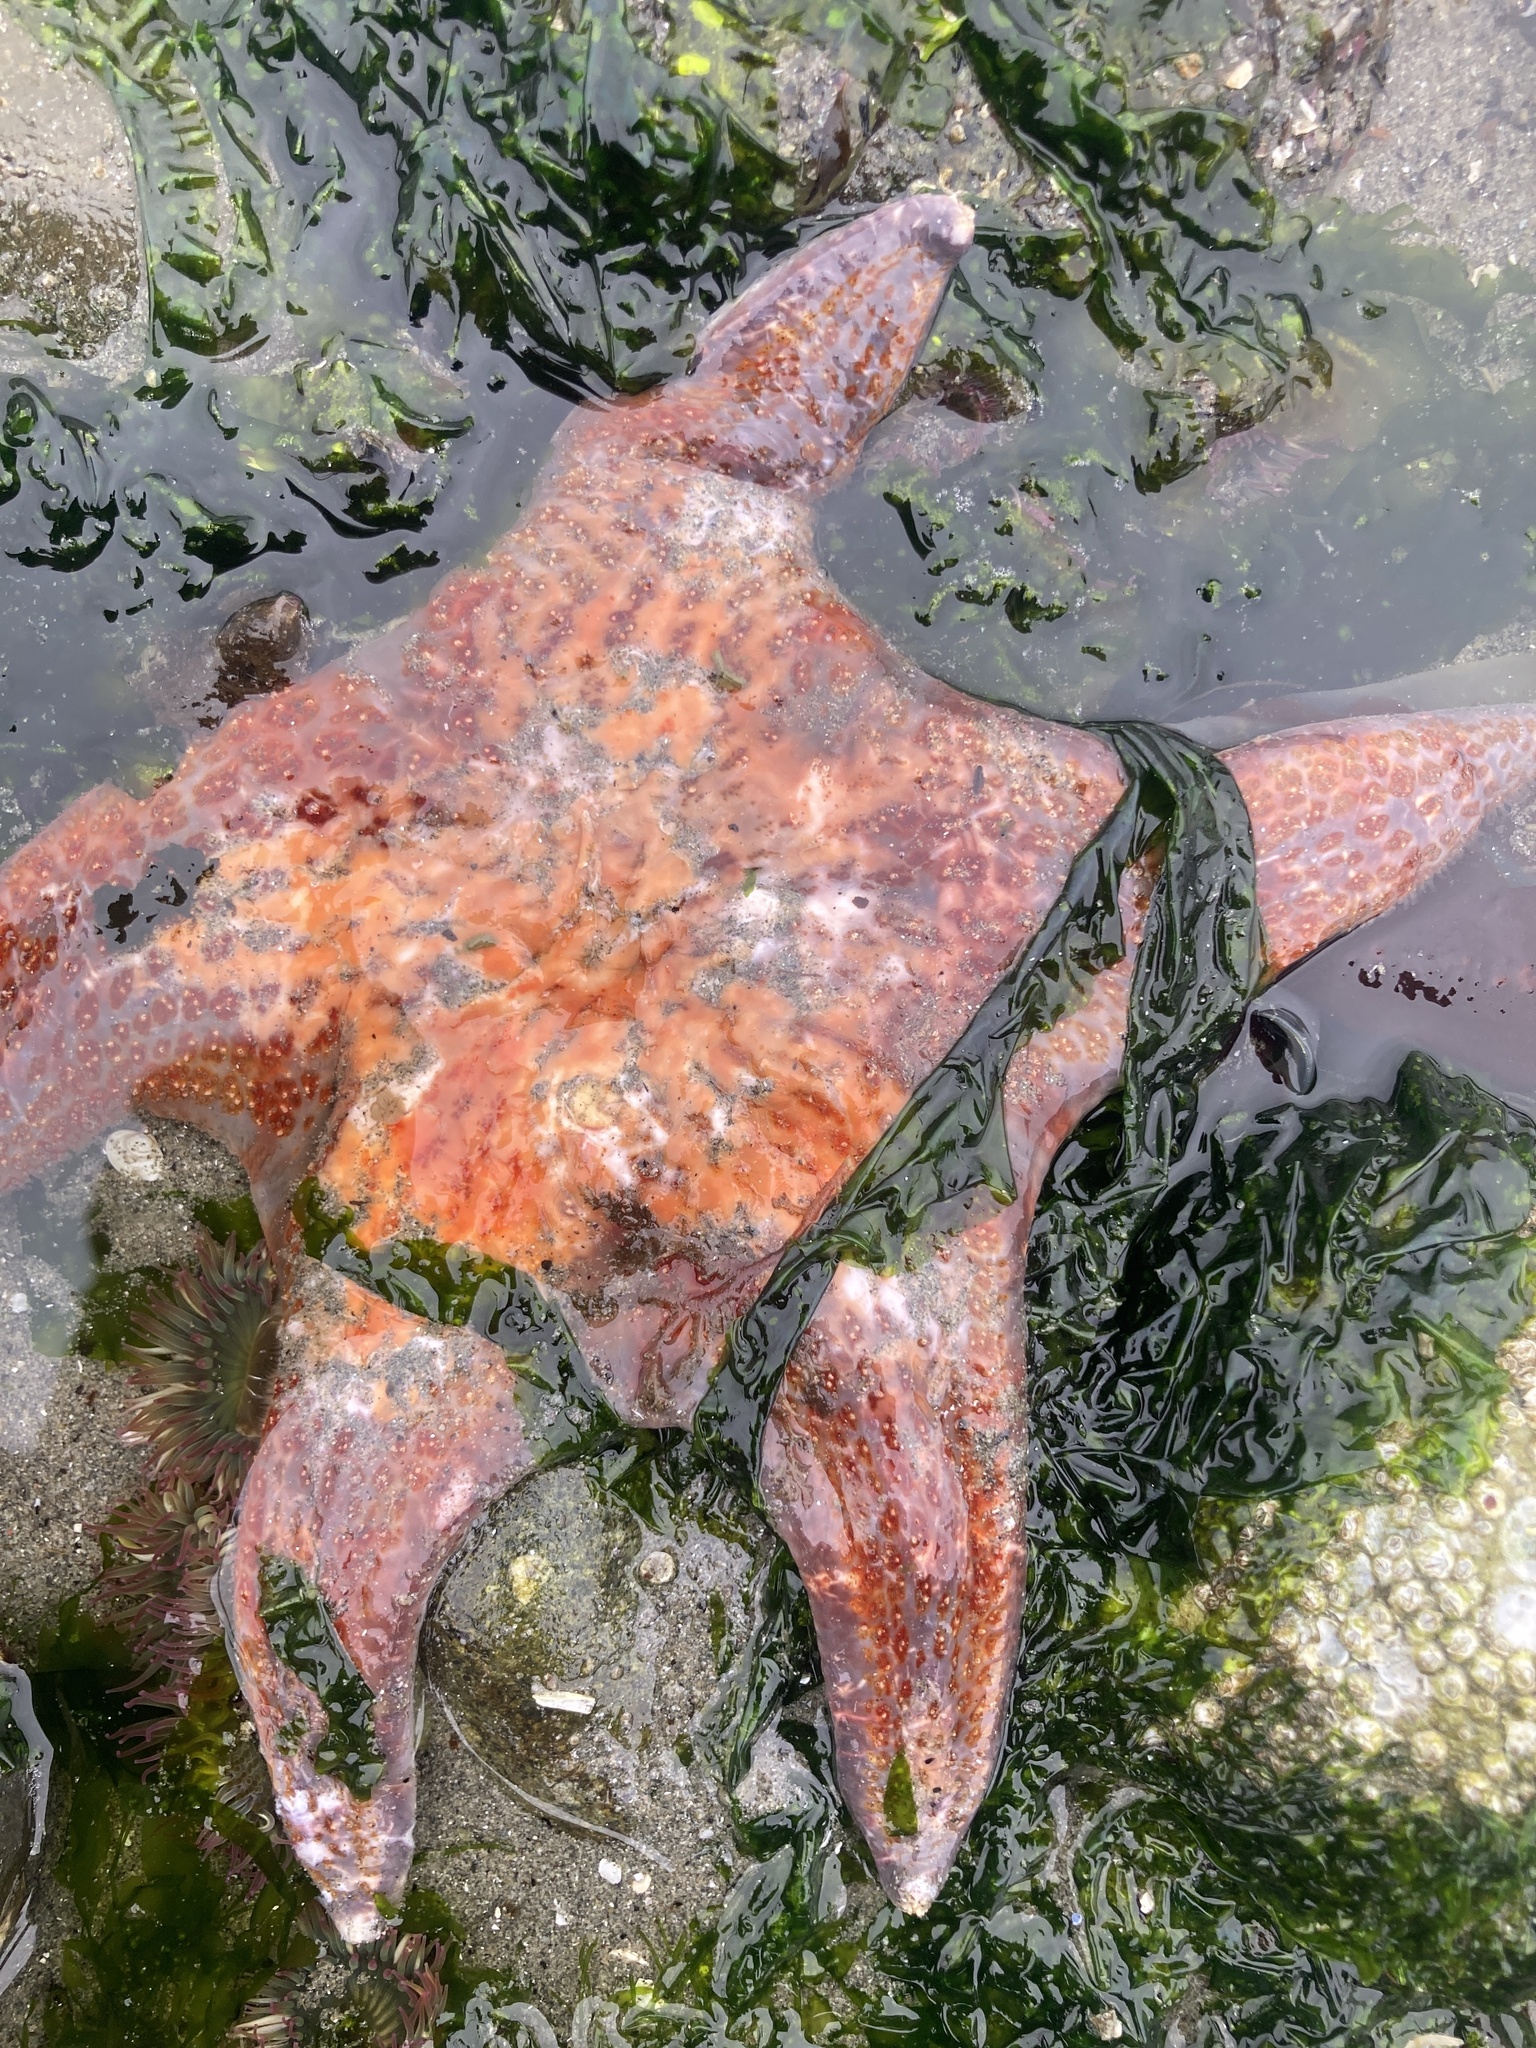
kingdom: Animalia
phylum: Echinodermata
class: Asteroidea
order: Valvatida
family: Asteropseidae
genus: Dermasterias
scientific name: Dermasterias imbricata
